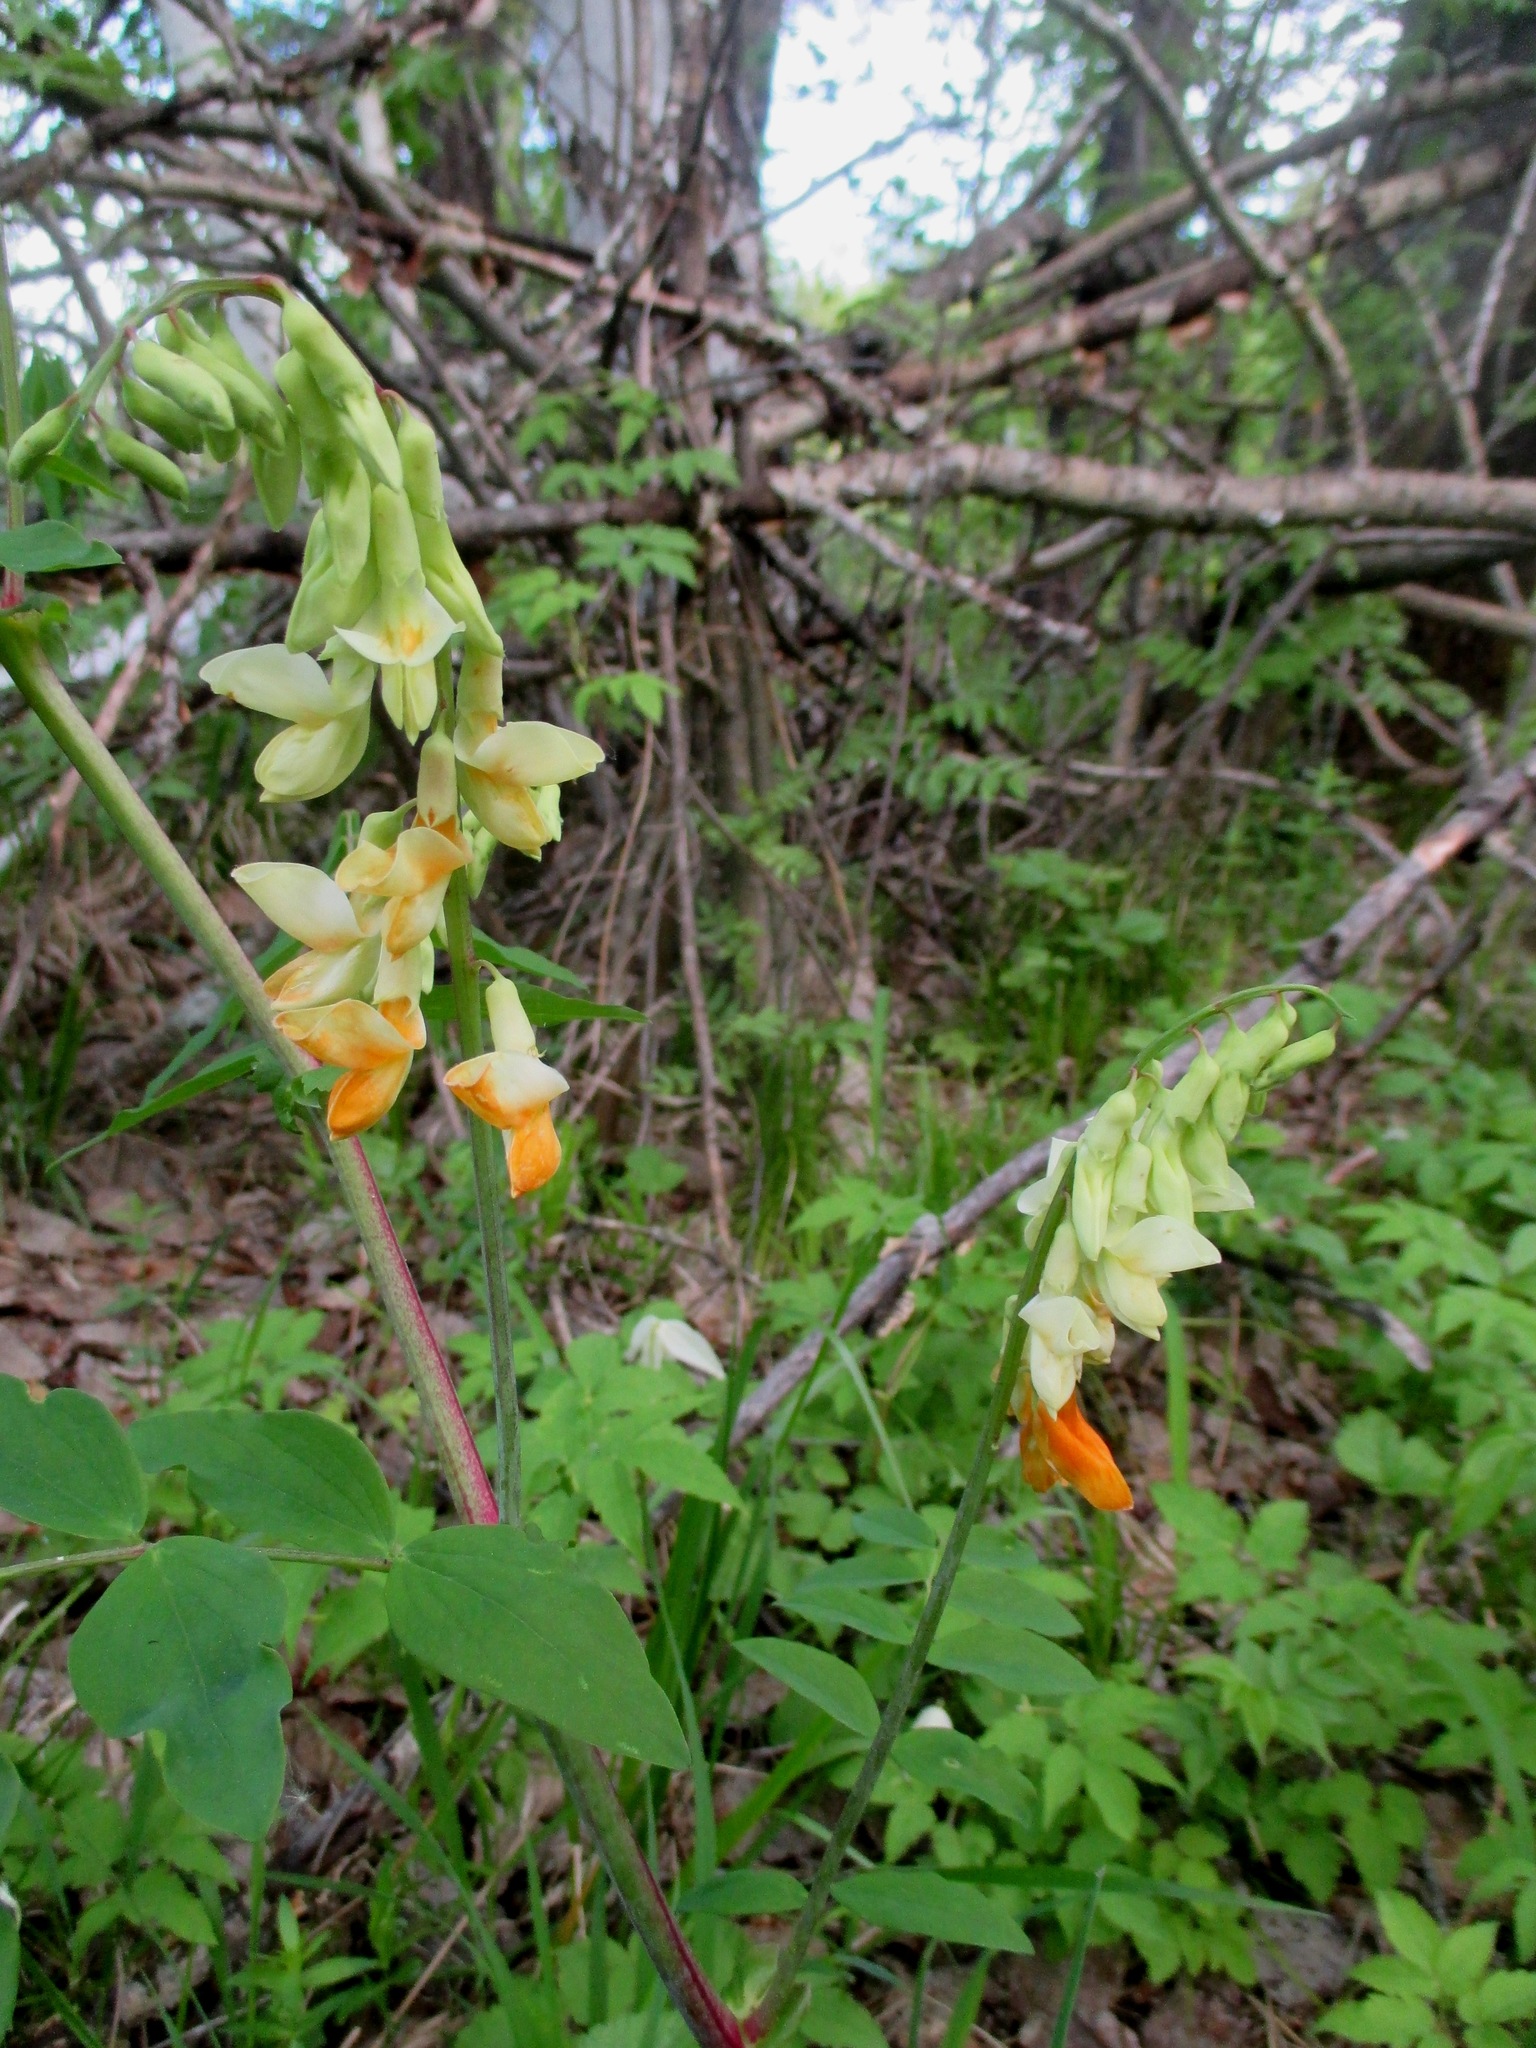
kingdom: Plantae
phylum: Tracheophyta
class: Magnoliopsida
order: Fabales
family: Fabaceae
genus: Lathyrus
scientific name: Lathyrus gmelinii
